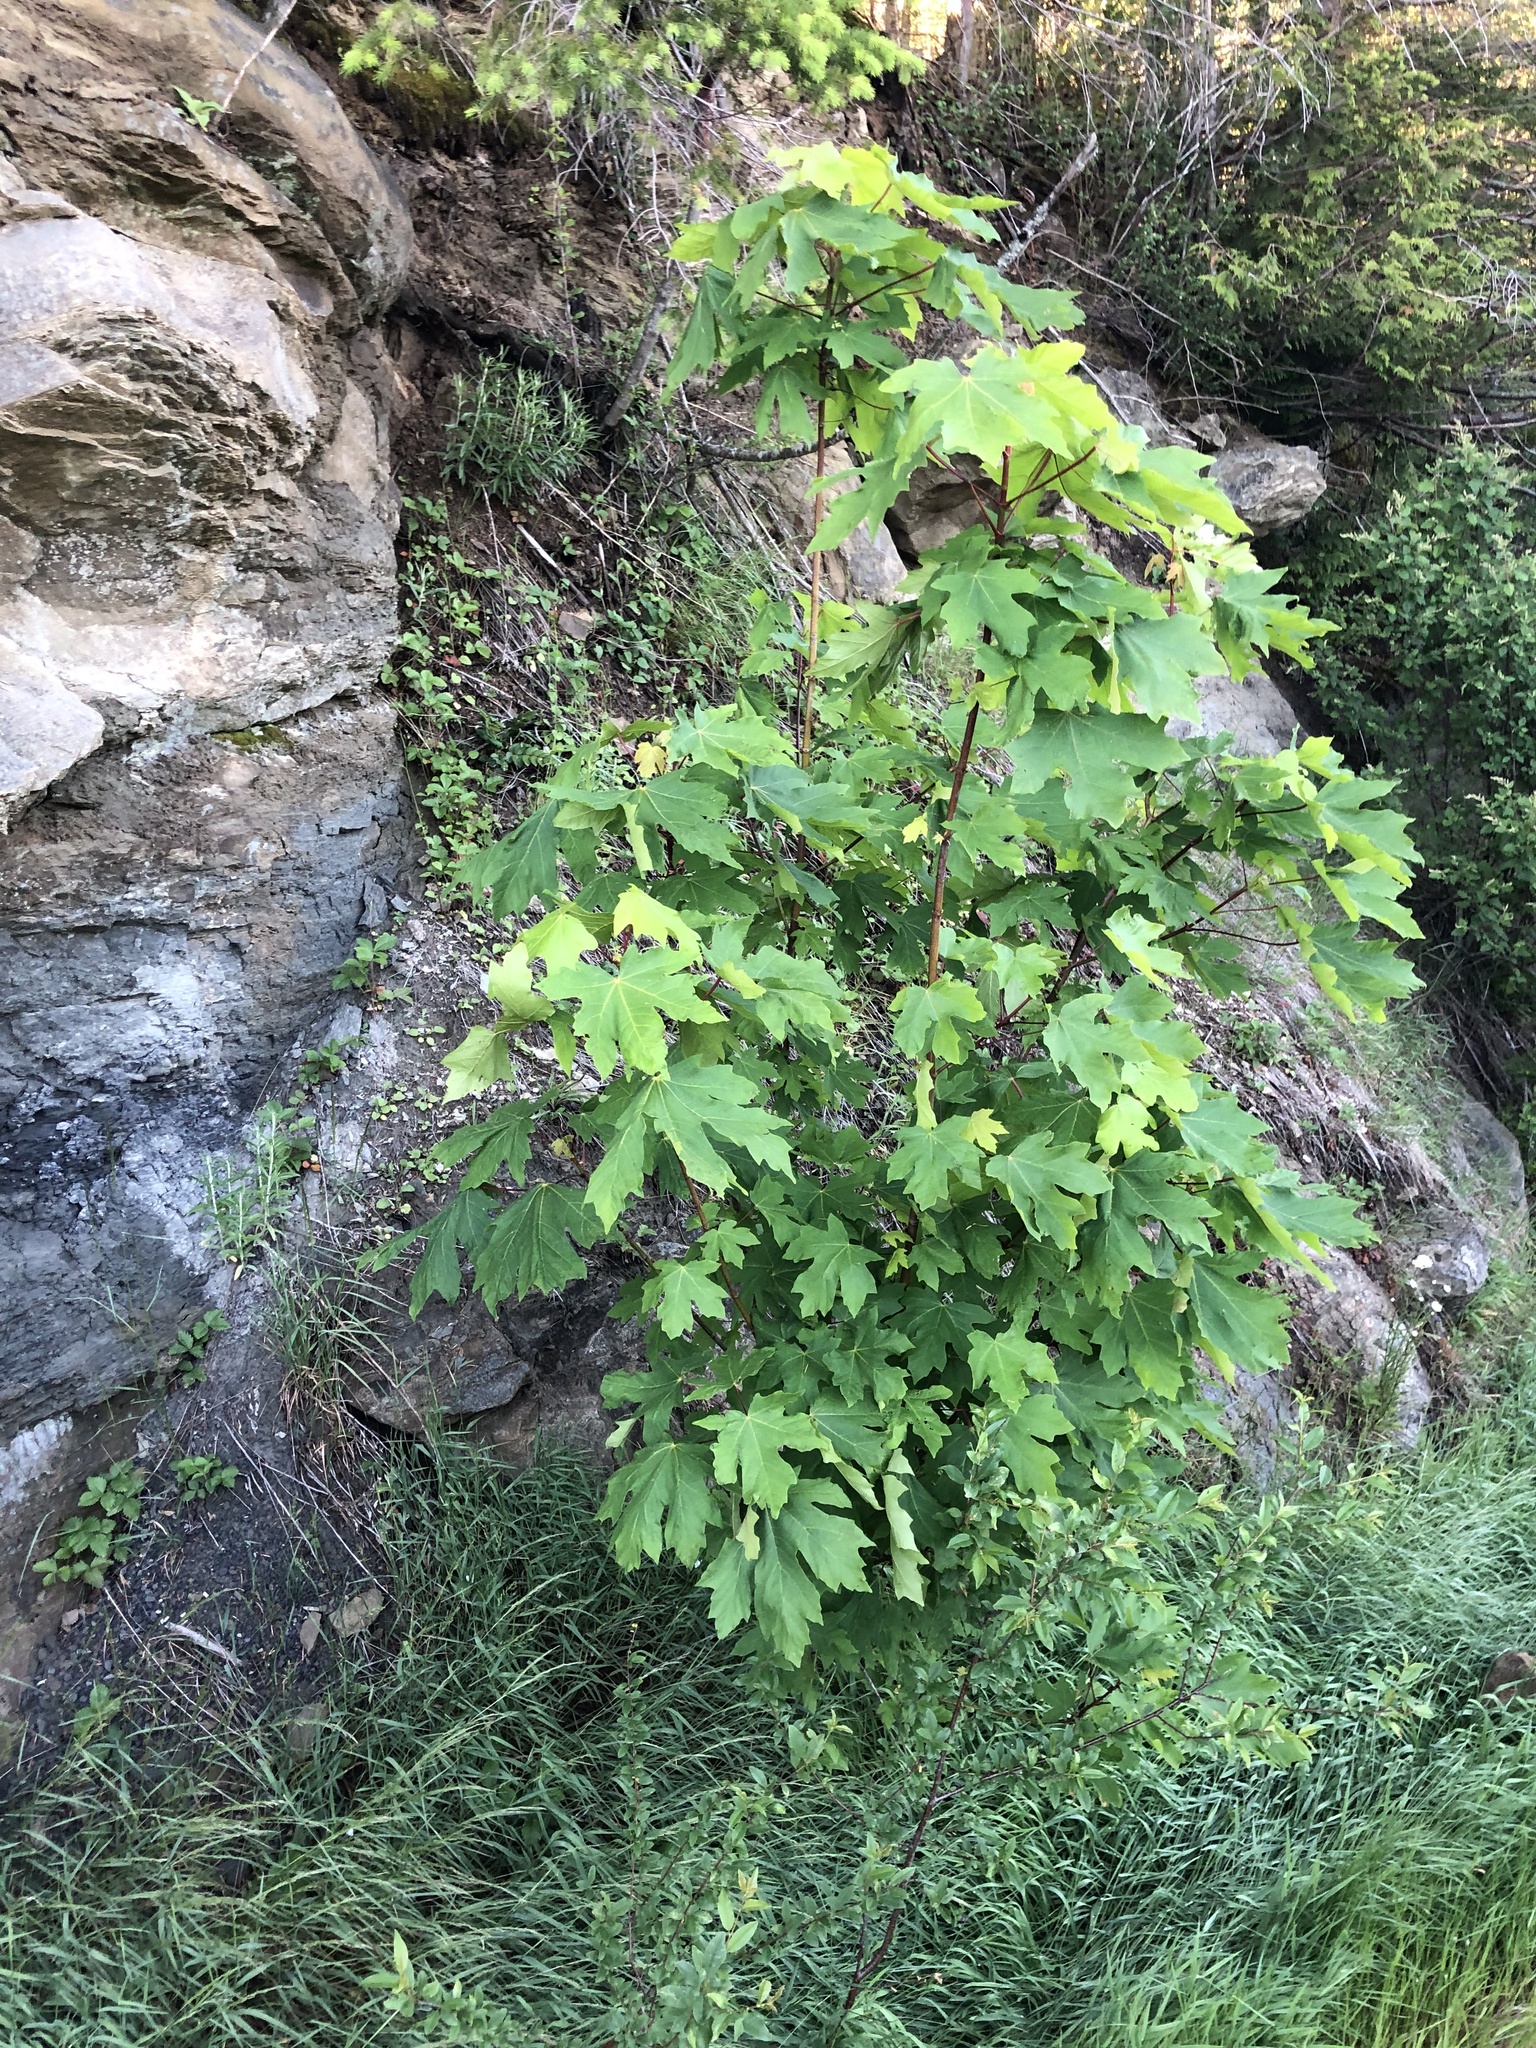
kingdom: Plantae
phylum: Tracheophyta
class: Magnoliopsida
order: Sapindales
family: Sapindaceae
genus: Acer
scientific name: Acer macrophyllum
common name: Oregon maple
